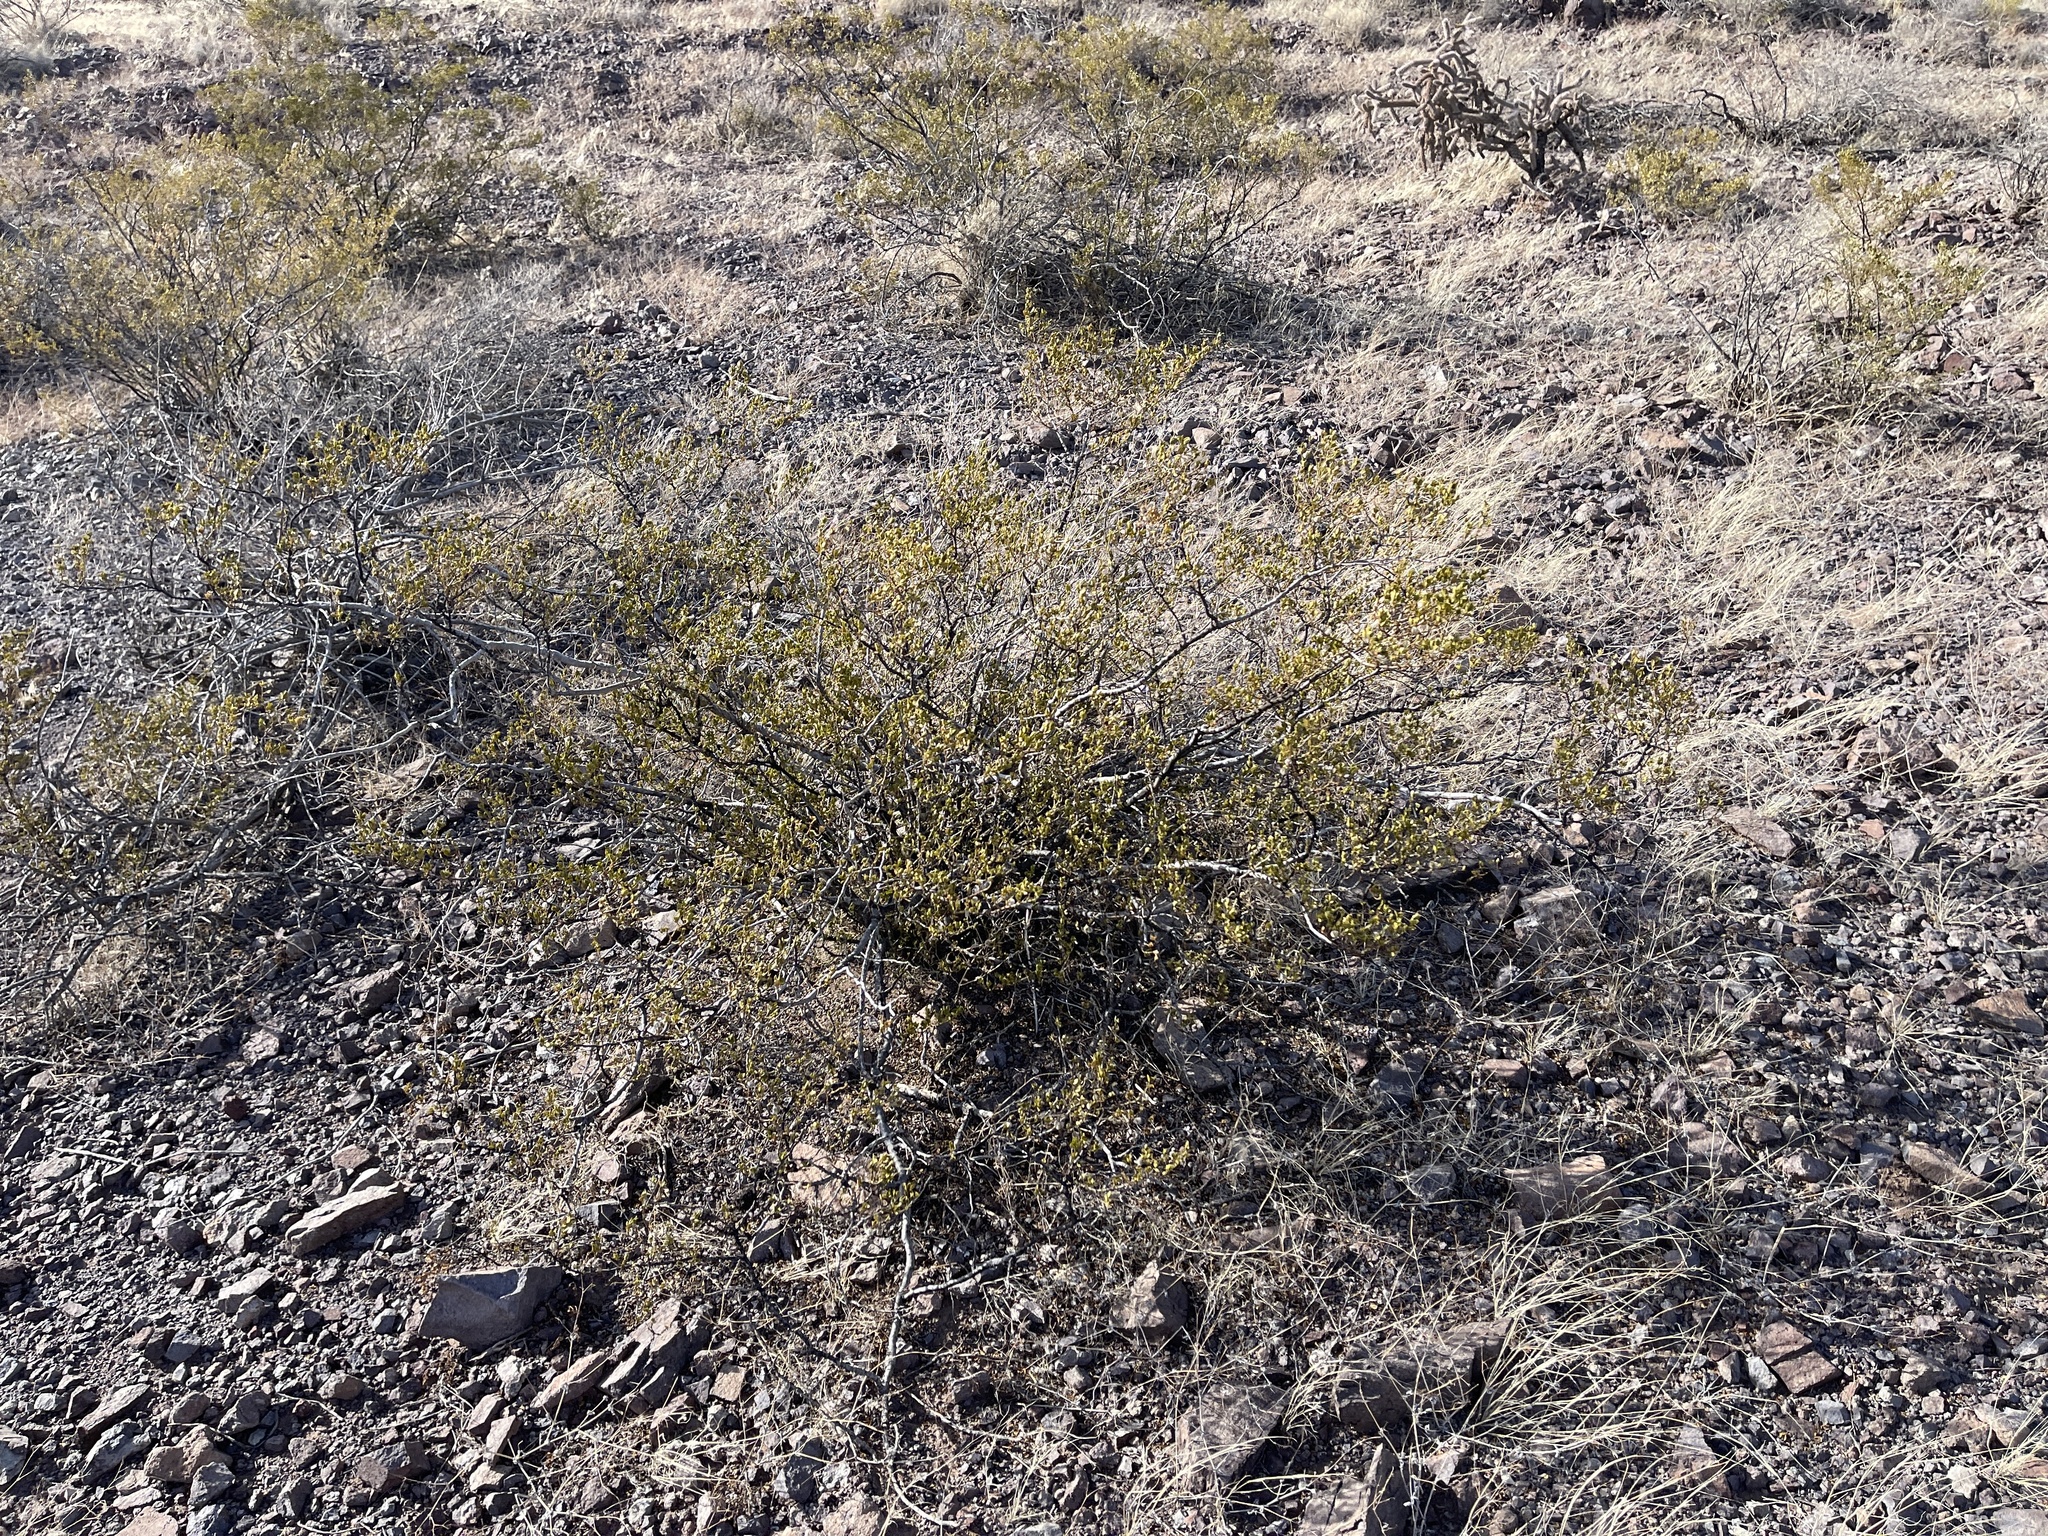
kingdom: Plantae
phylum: Tracheophyta
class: Magnoliopsida
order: Zygophyllales
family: Zygophyllaceae
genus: Larrea
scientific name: Larrea tridentata
